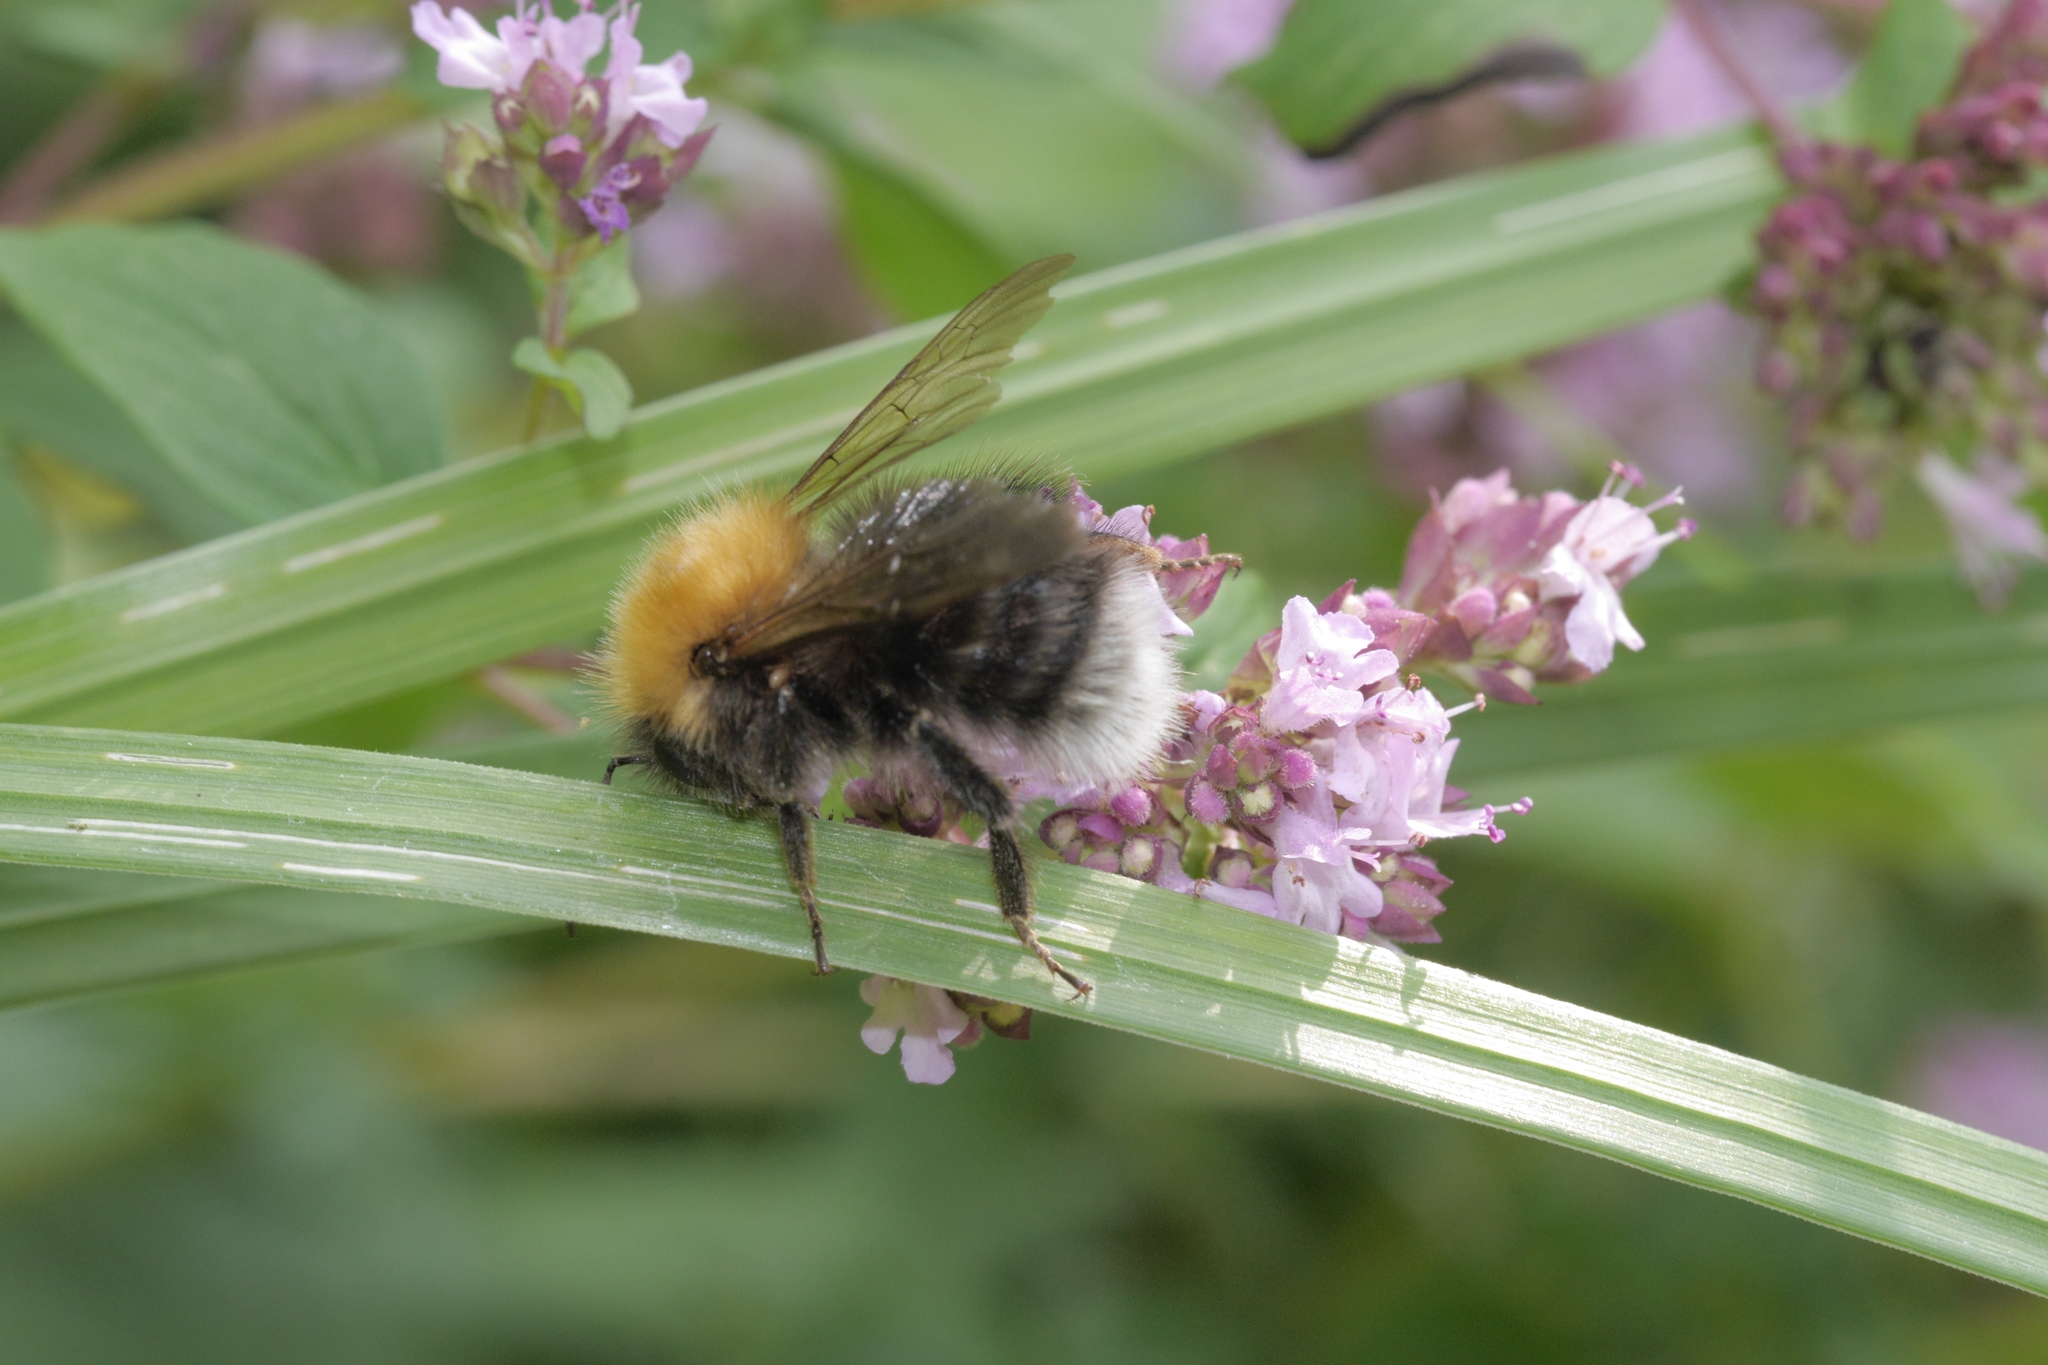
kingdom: Animalia
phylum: Arthropoda
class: Insecta
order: Hymenoptera
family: Apidae
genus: Bombus
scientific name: Bombus hypnorum
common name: New garden bumblebee
